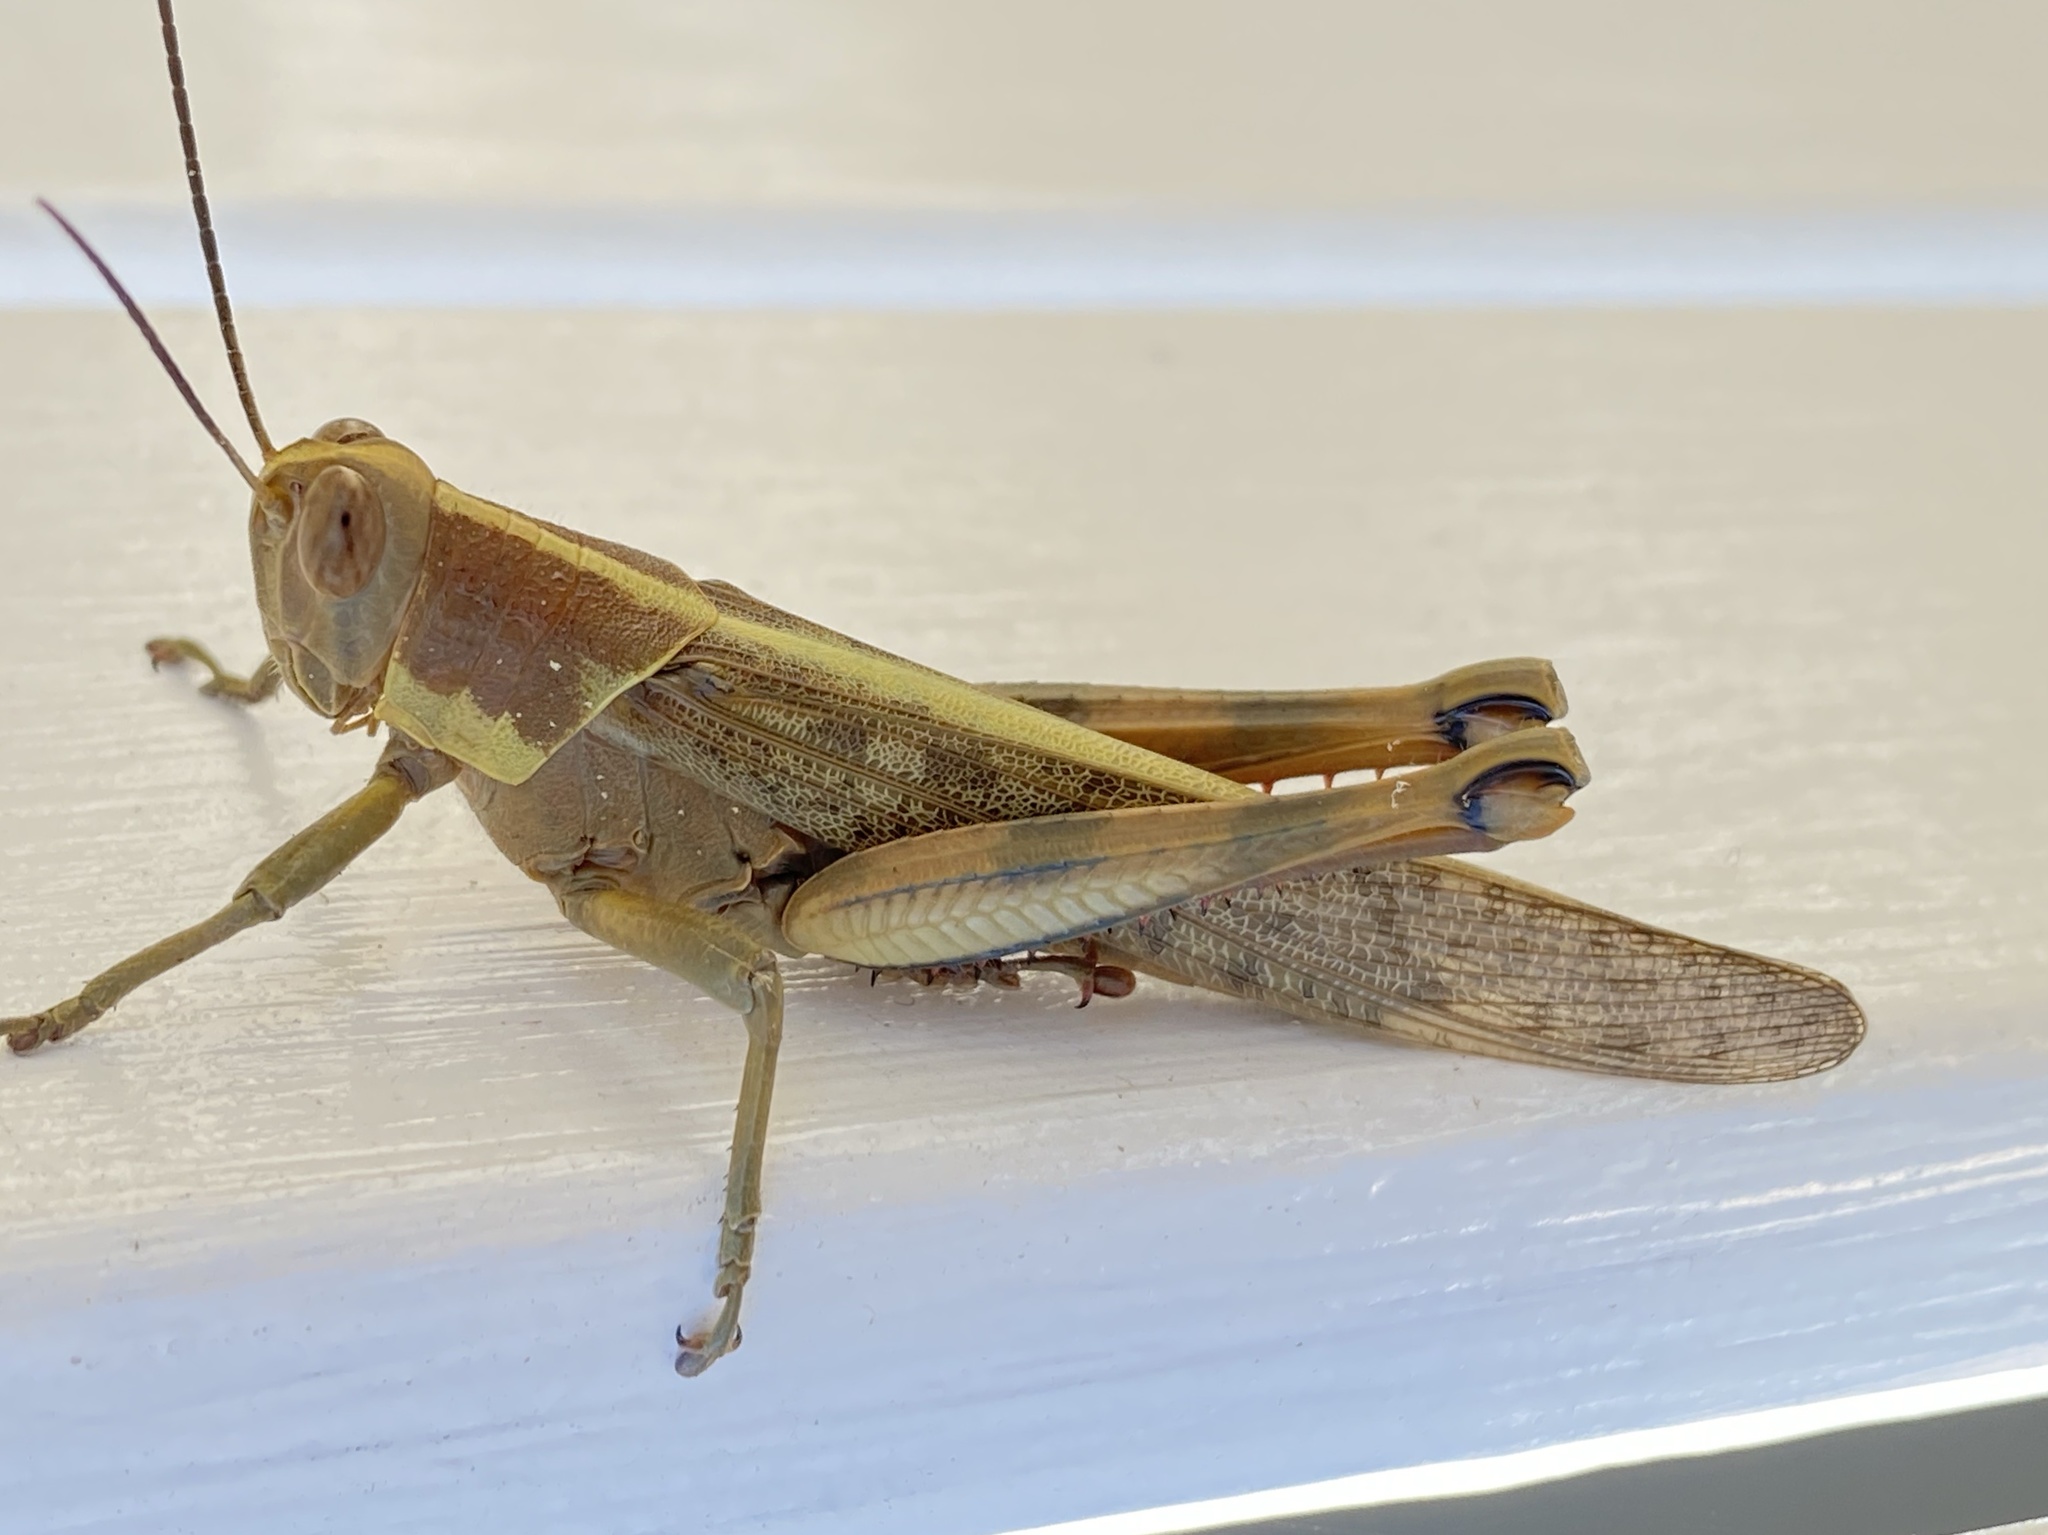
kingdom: Animalia
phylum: Arthropoda
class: Insecta
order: Orthoptera
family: Acrididae
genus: Valanga
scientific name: Valanga irregularis
